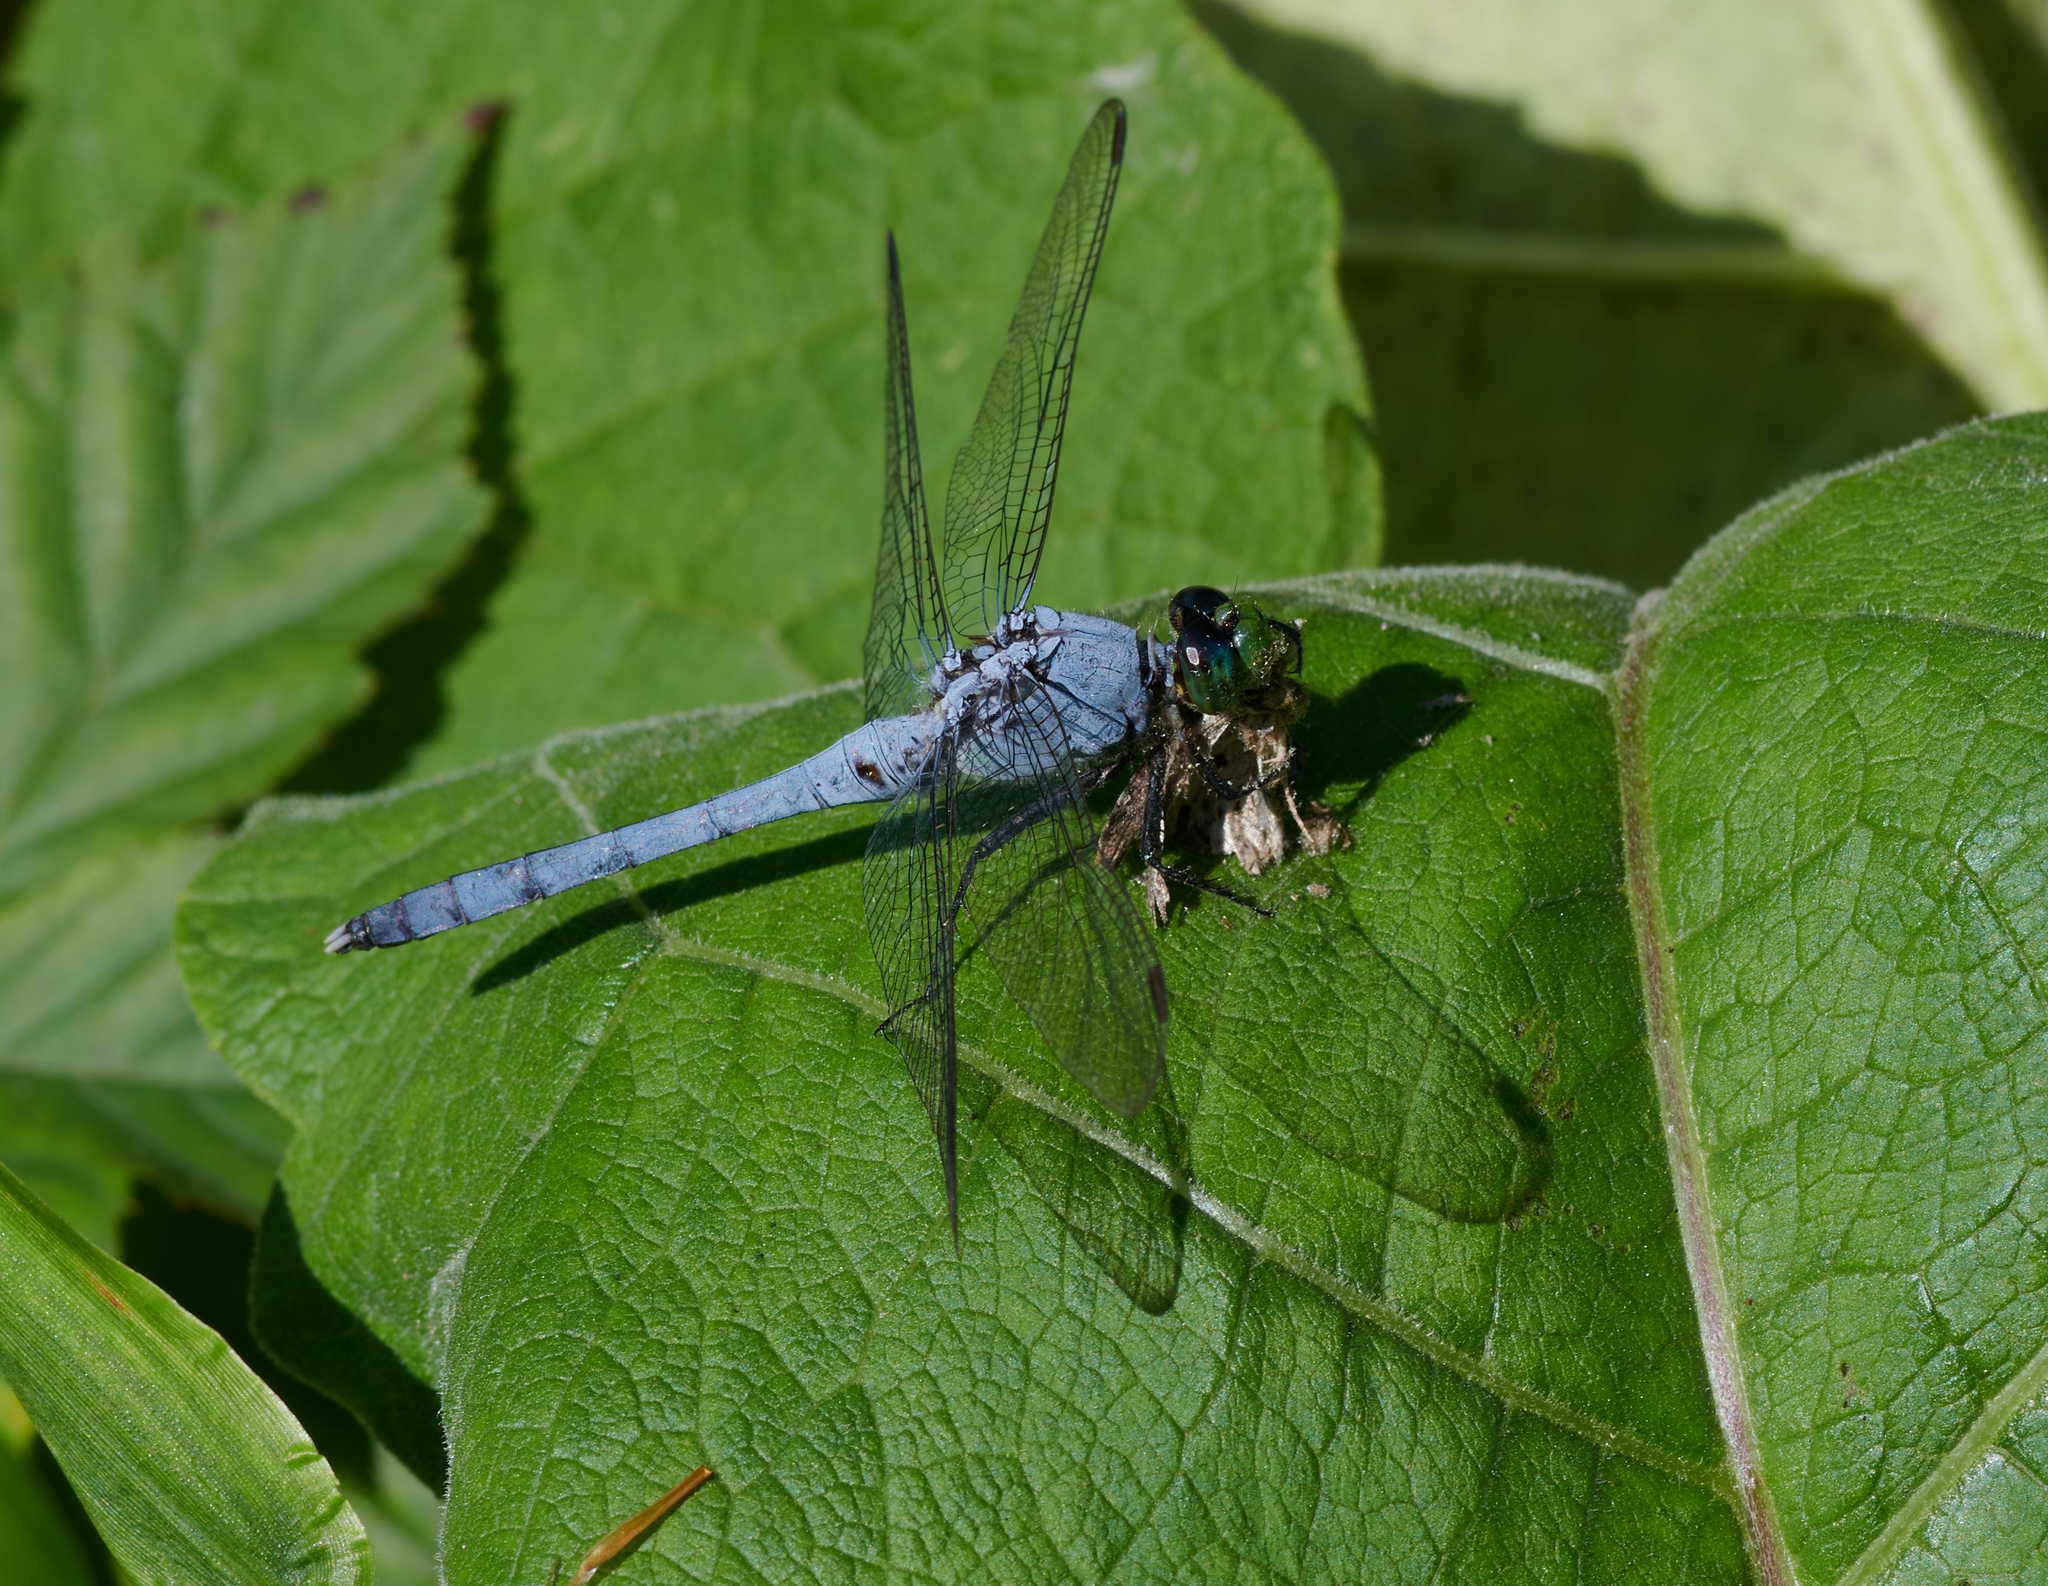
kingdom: Animalia
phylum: Arthropoda
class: Insecta
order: Odonata
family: Libellulidae
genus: Erythemis
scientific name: Erythemis simplicicollis
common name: Eastern pondhawk
